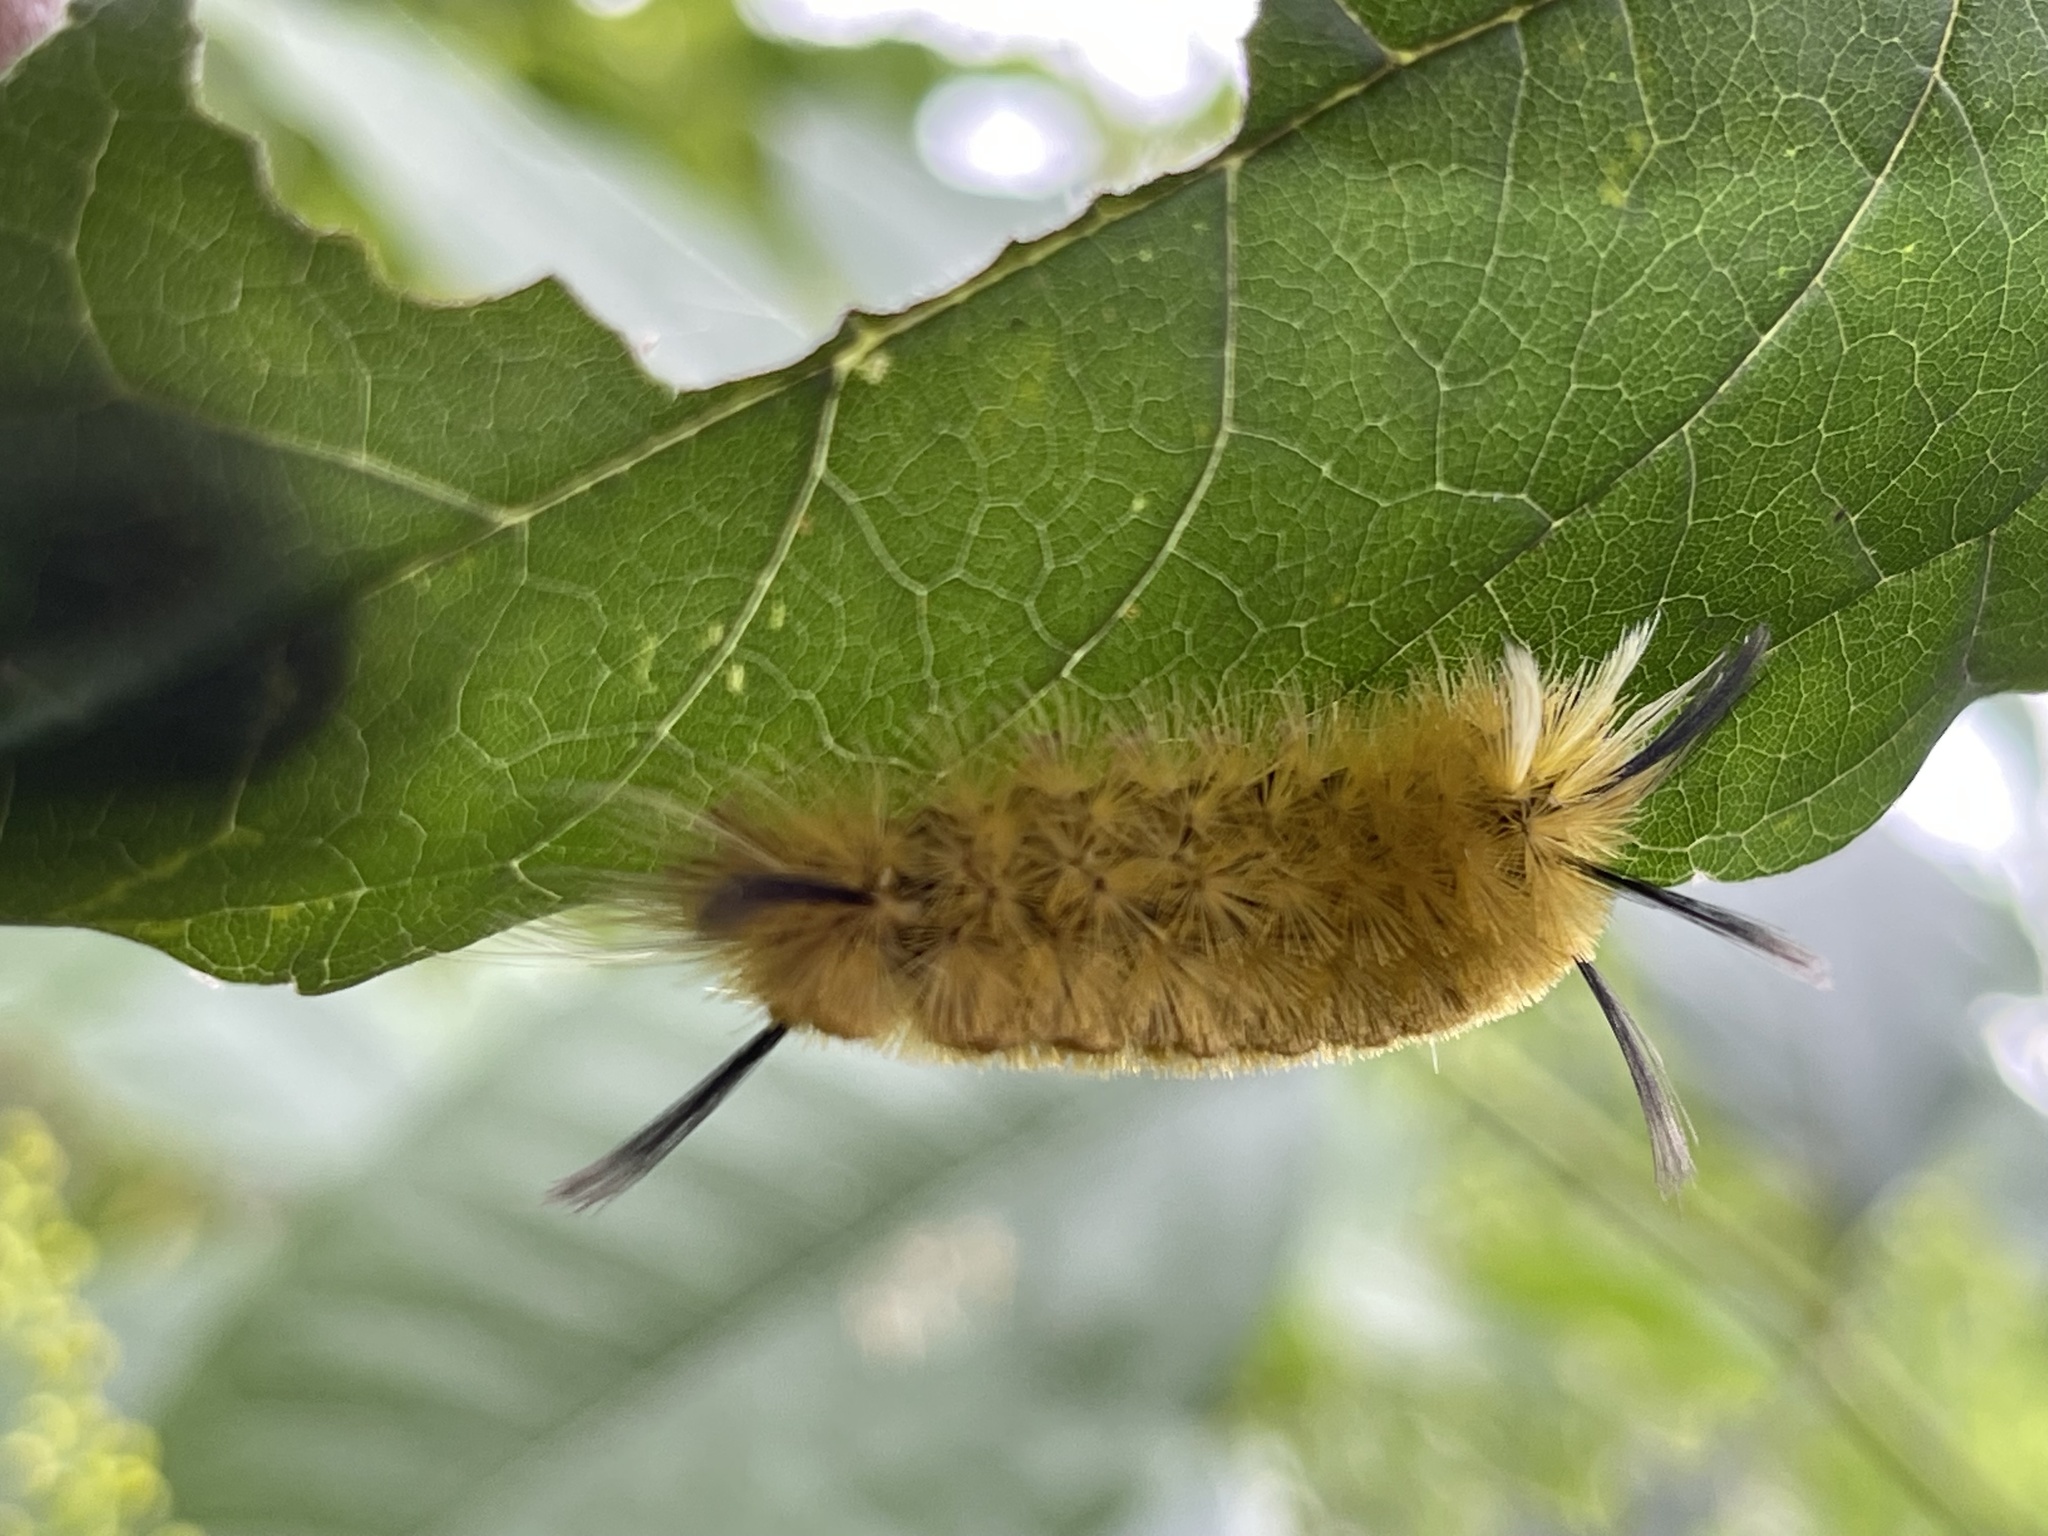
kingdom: Animalia
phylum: Arthropoda
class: Insecta
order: Lepidoptera
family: Erebidae
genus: Halysidota
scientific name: Halysidota tessellaris
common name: Banded tussock moth
